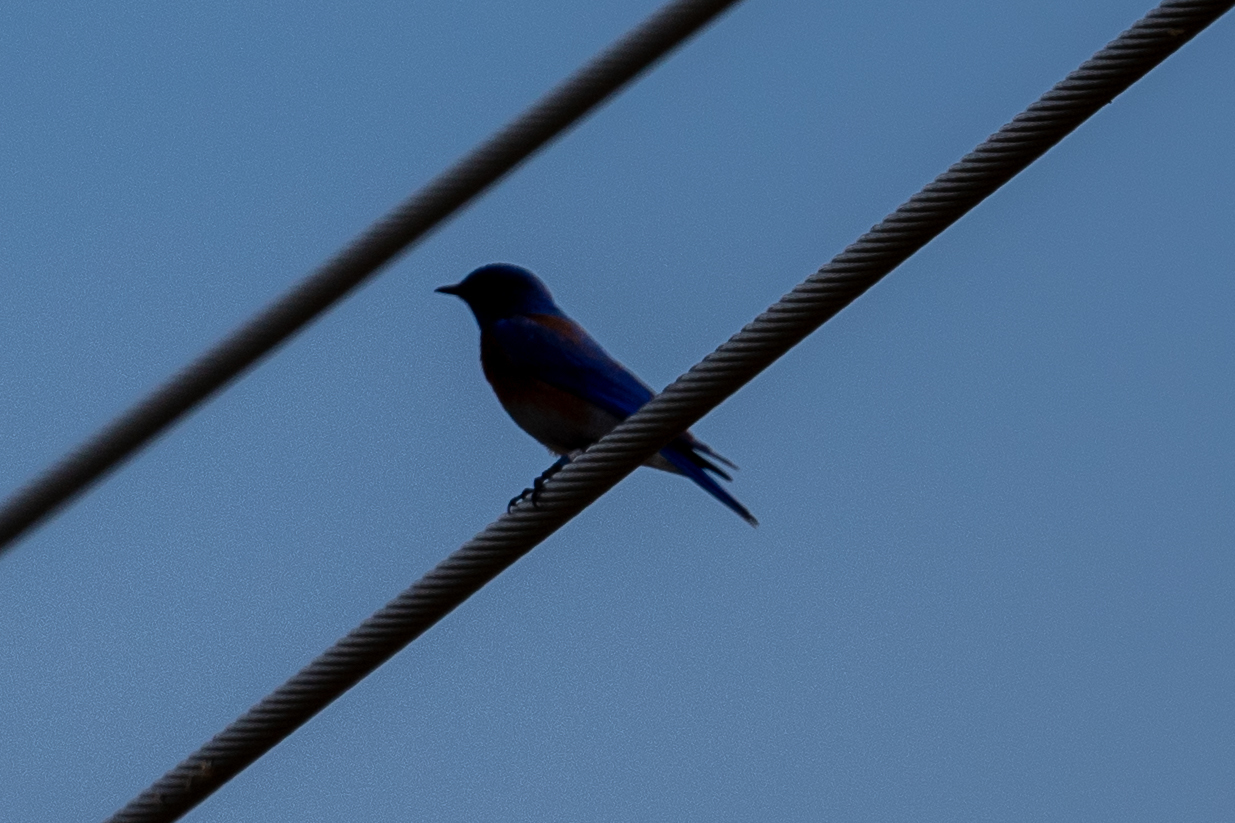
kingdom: Animalia
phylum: Chordata
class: Aves
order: Passeriformes
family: Turdidae
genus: Sialia
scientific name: Sialia mexicana
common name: Western bluebird
